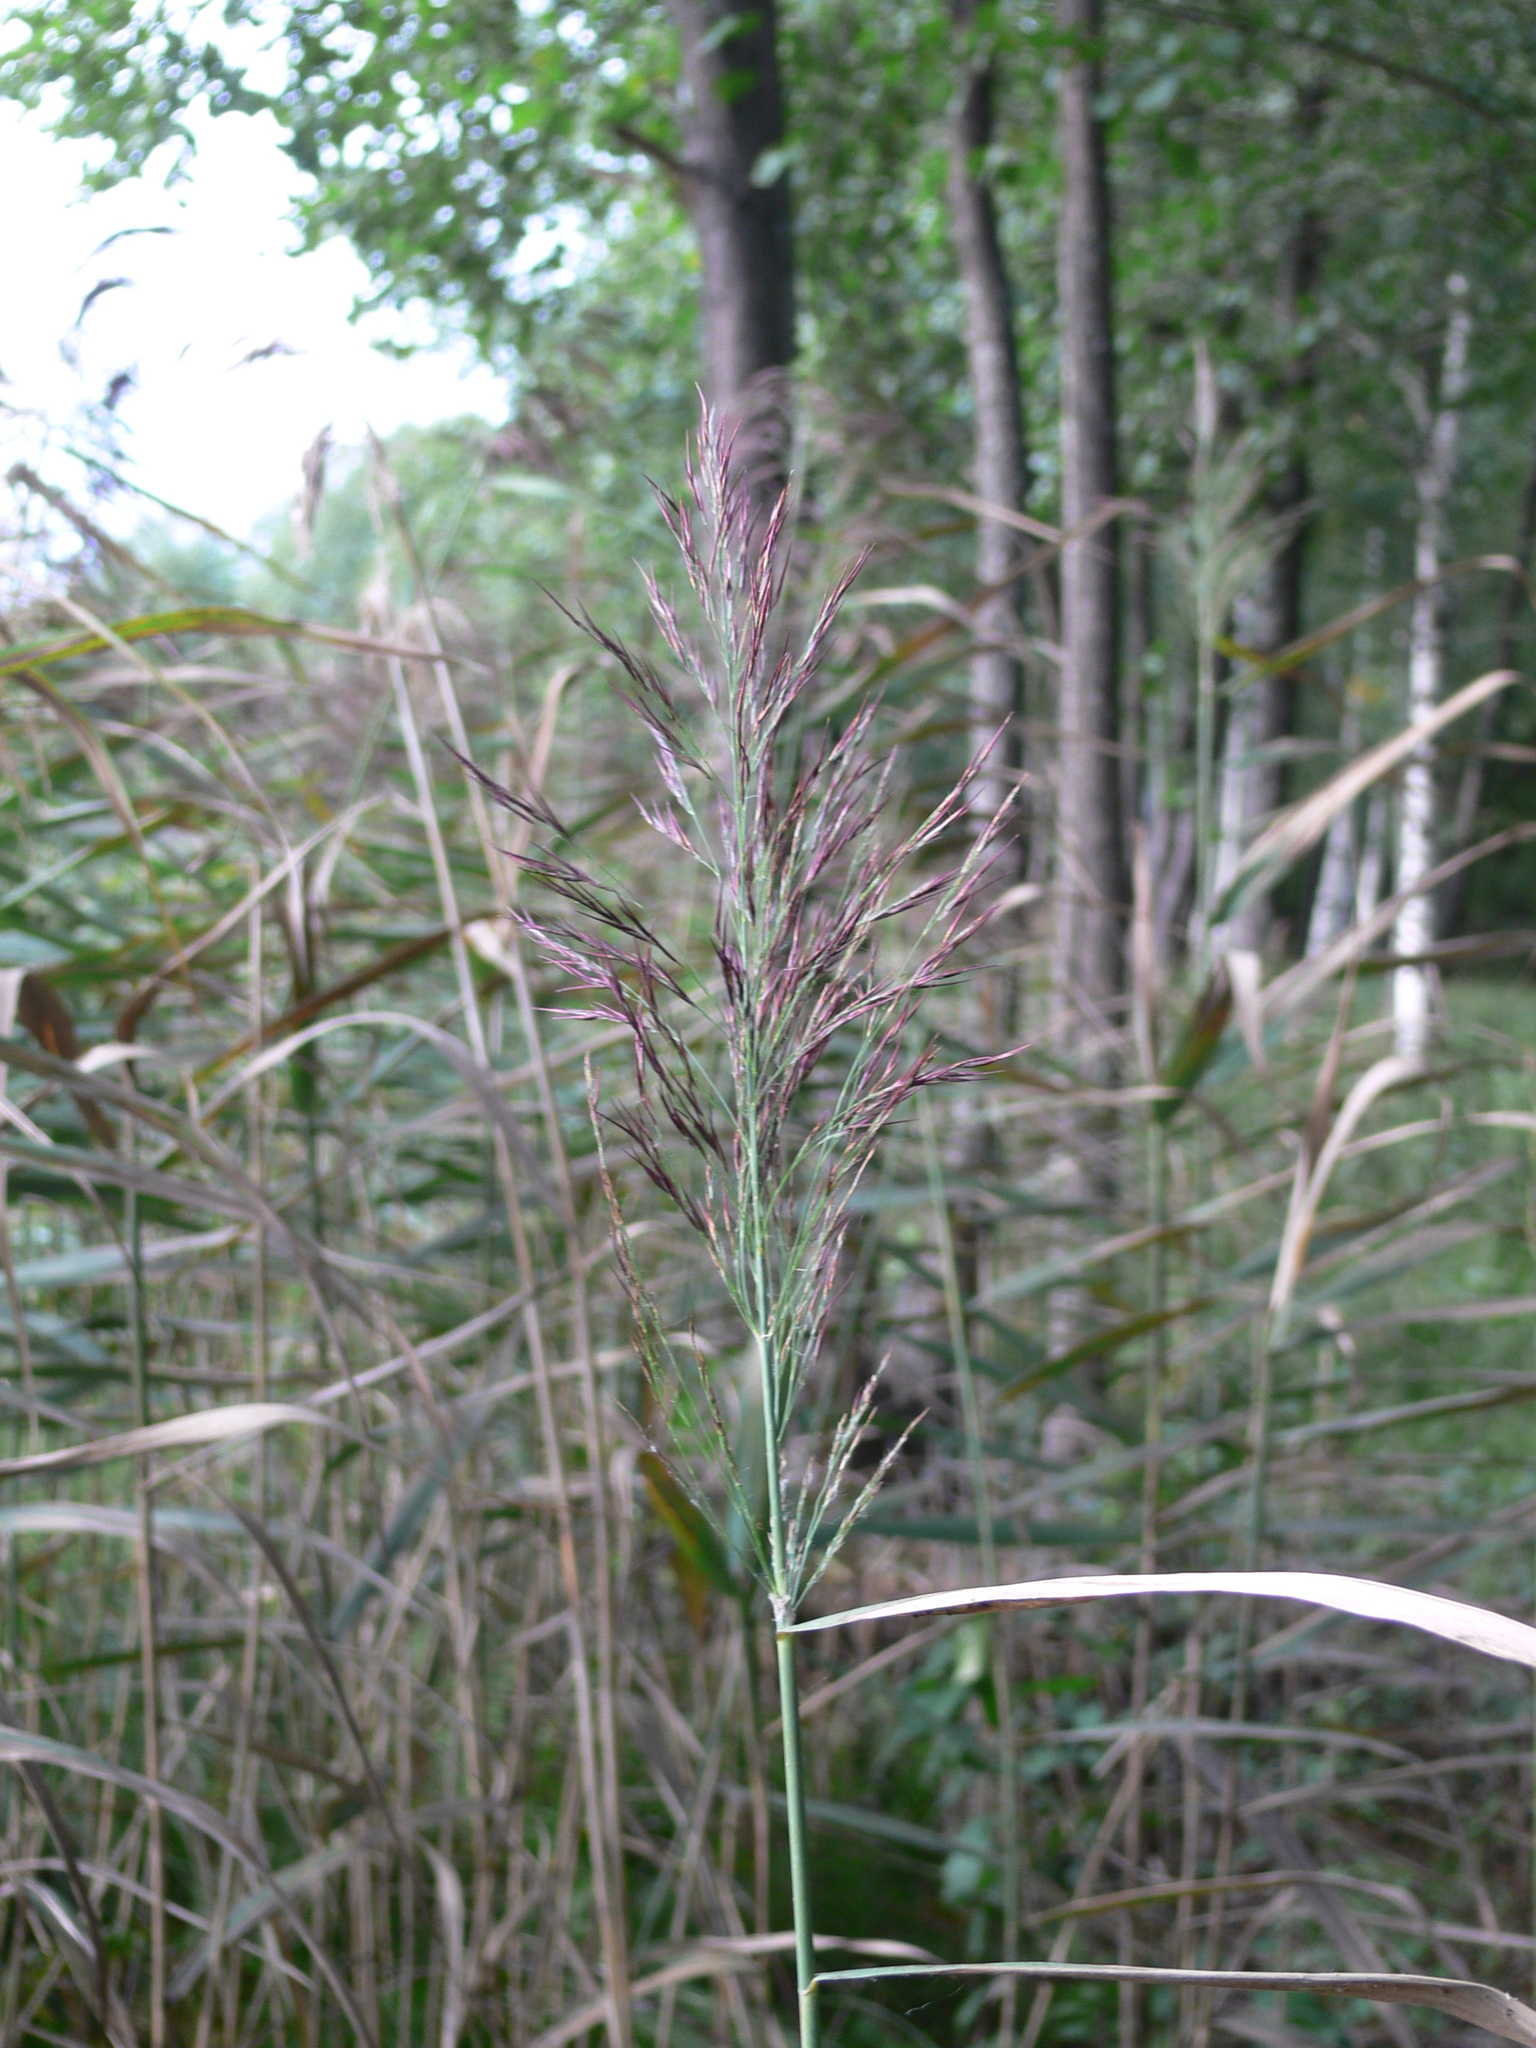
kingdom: Plantae
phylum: Tracheophyta
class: Liliopsida
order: Poales
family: Poaceae
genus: Phragmites
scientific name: Phragmites australis
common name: Common reed
